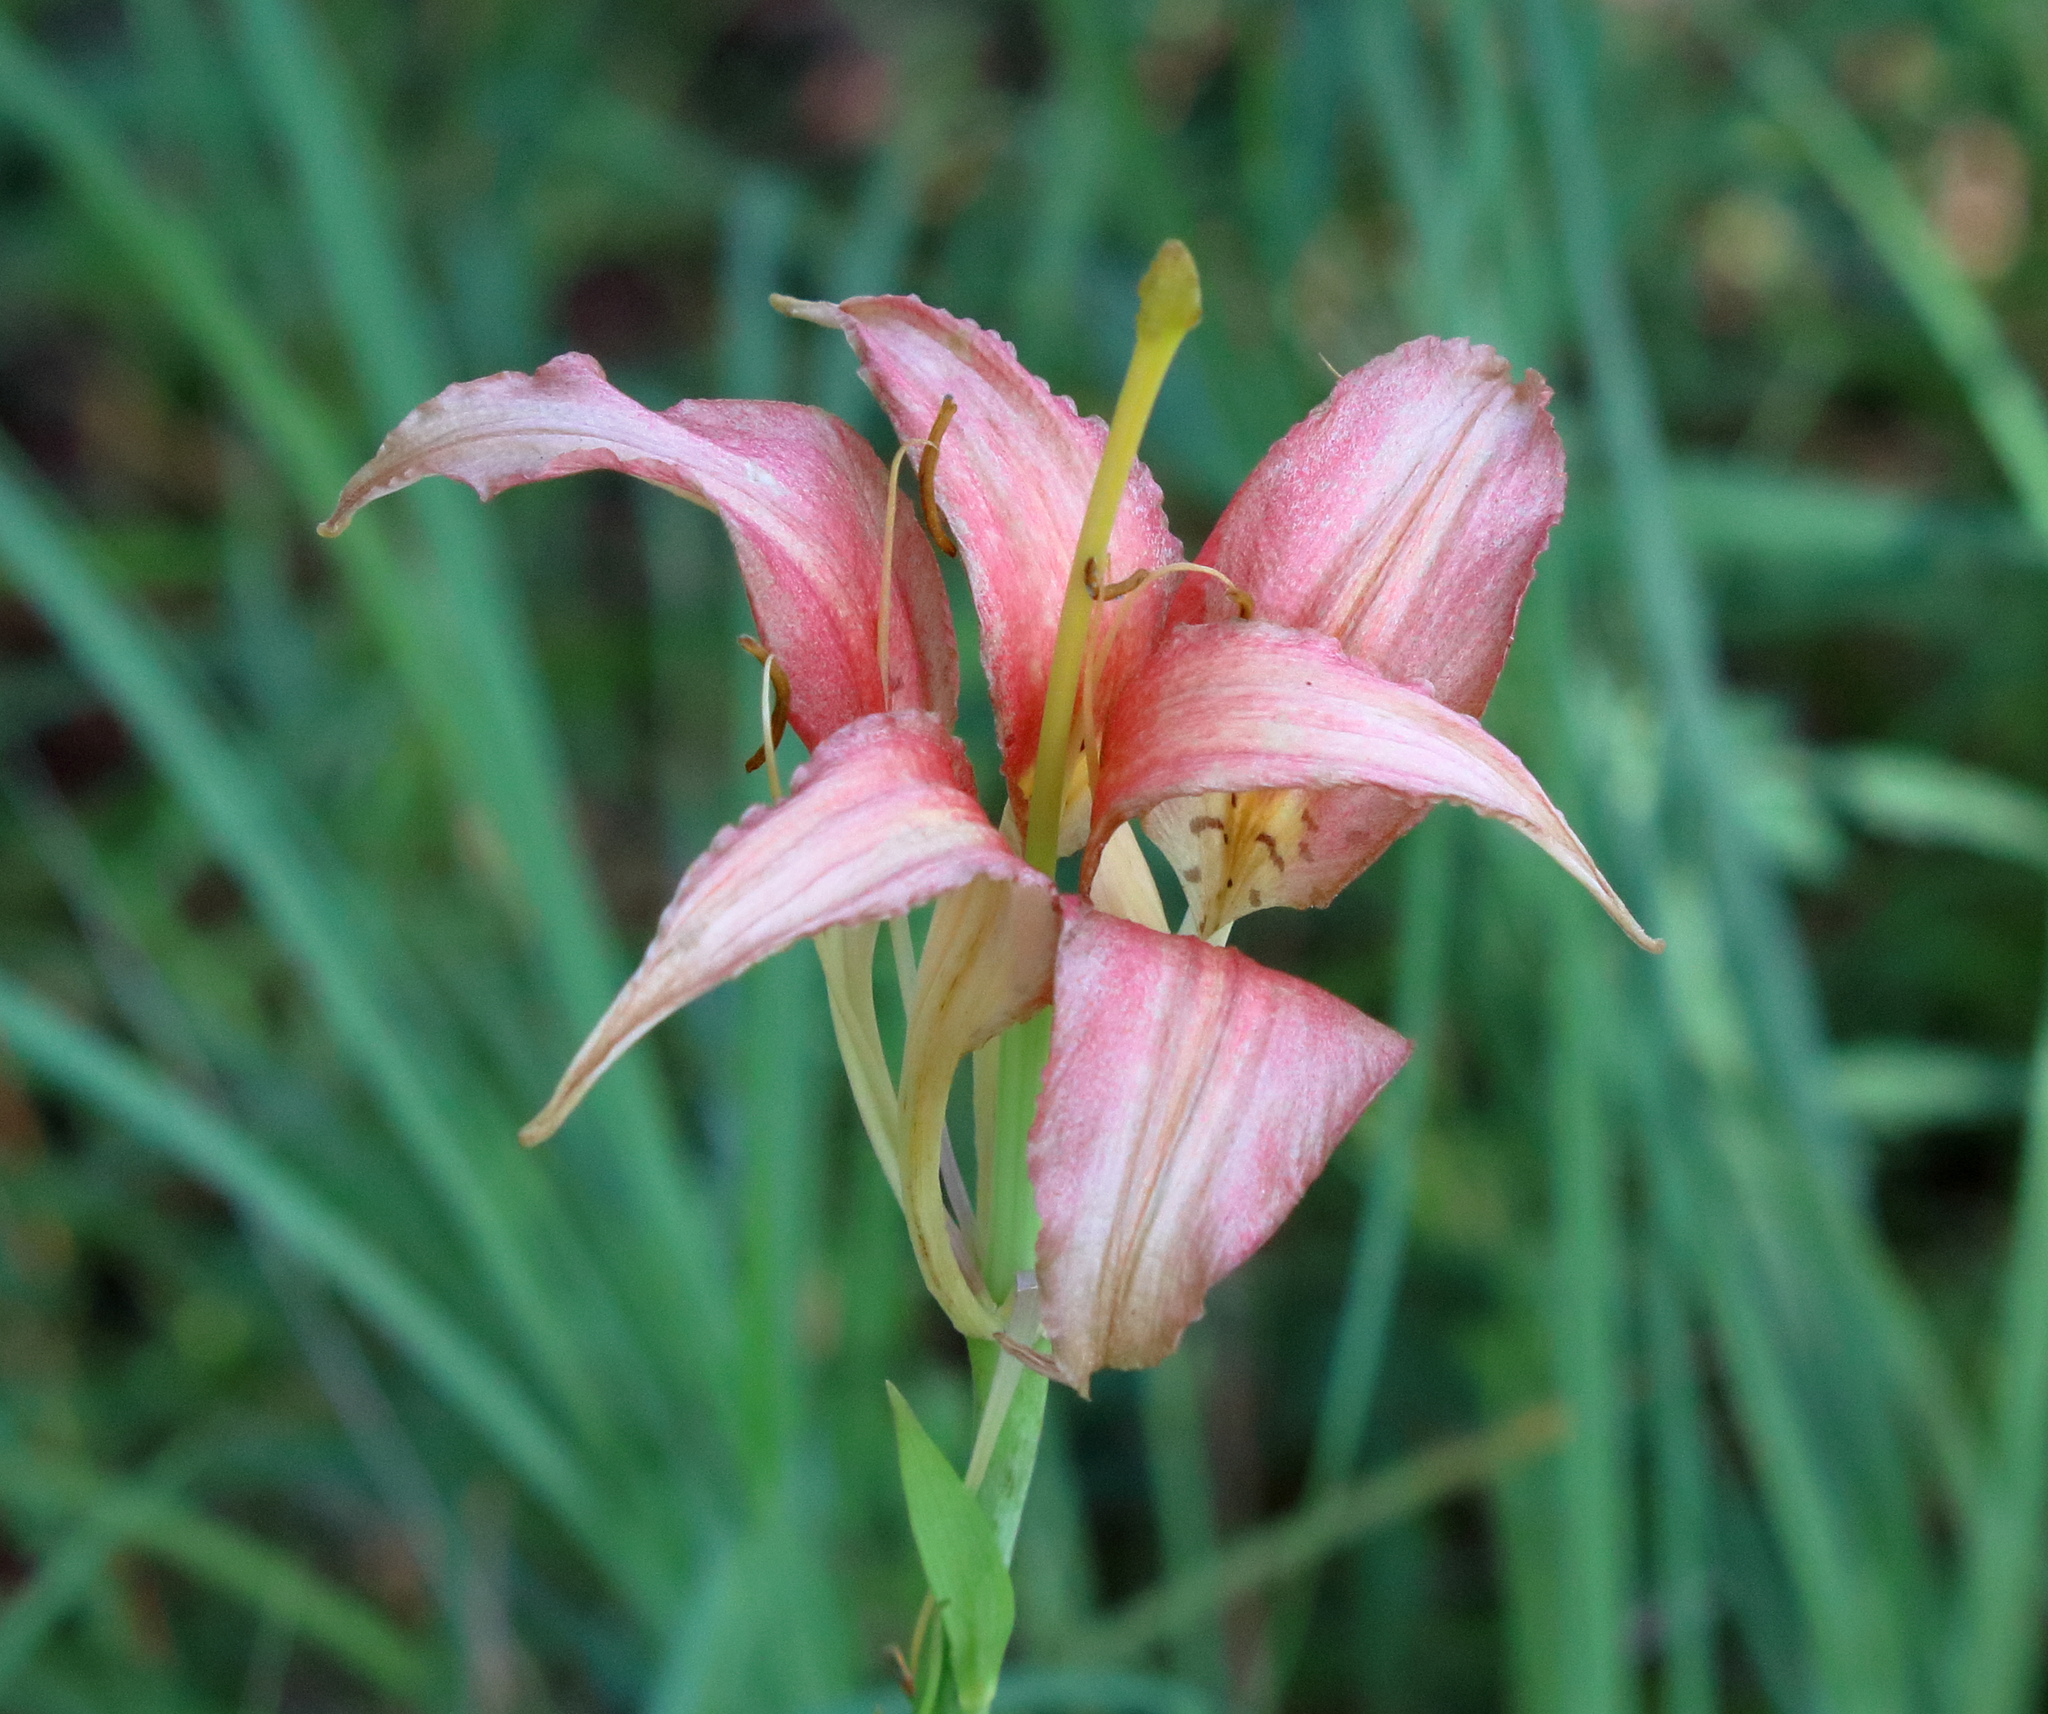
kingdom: Plantae
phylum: Tracheophyta
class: Liliopsida
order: Liliales
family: Liliaceae
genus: Lilium
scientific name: Lilium catesbaei
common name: Catesby's lily
